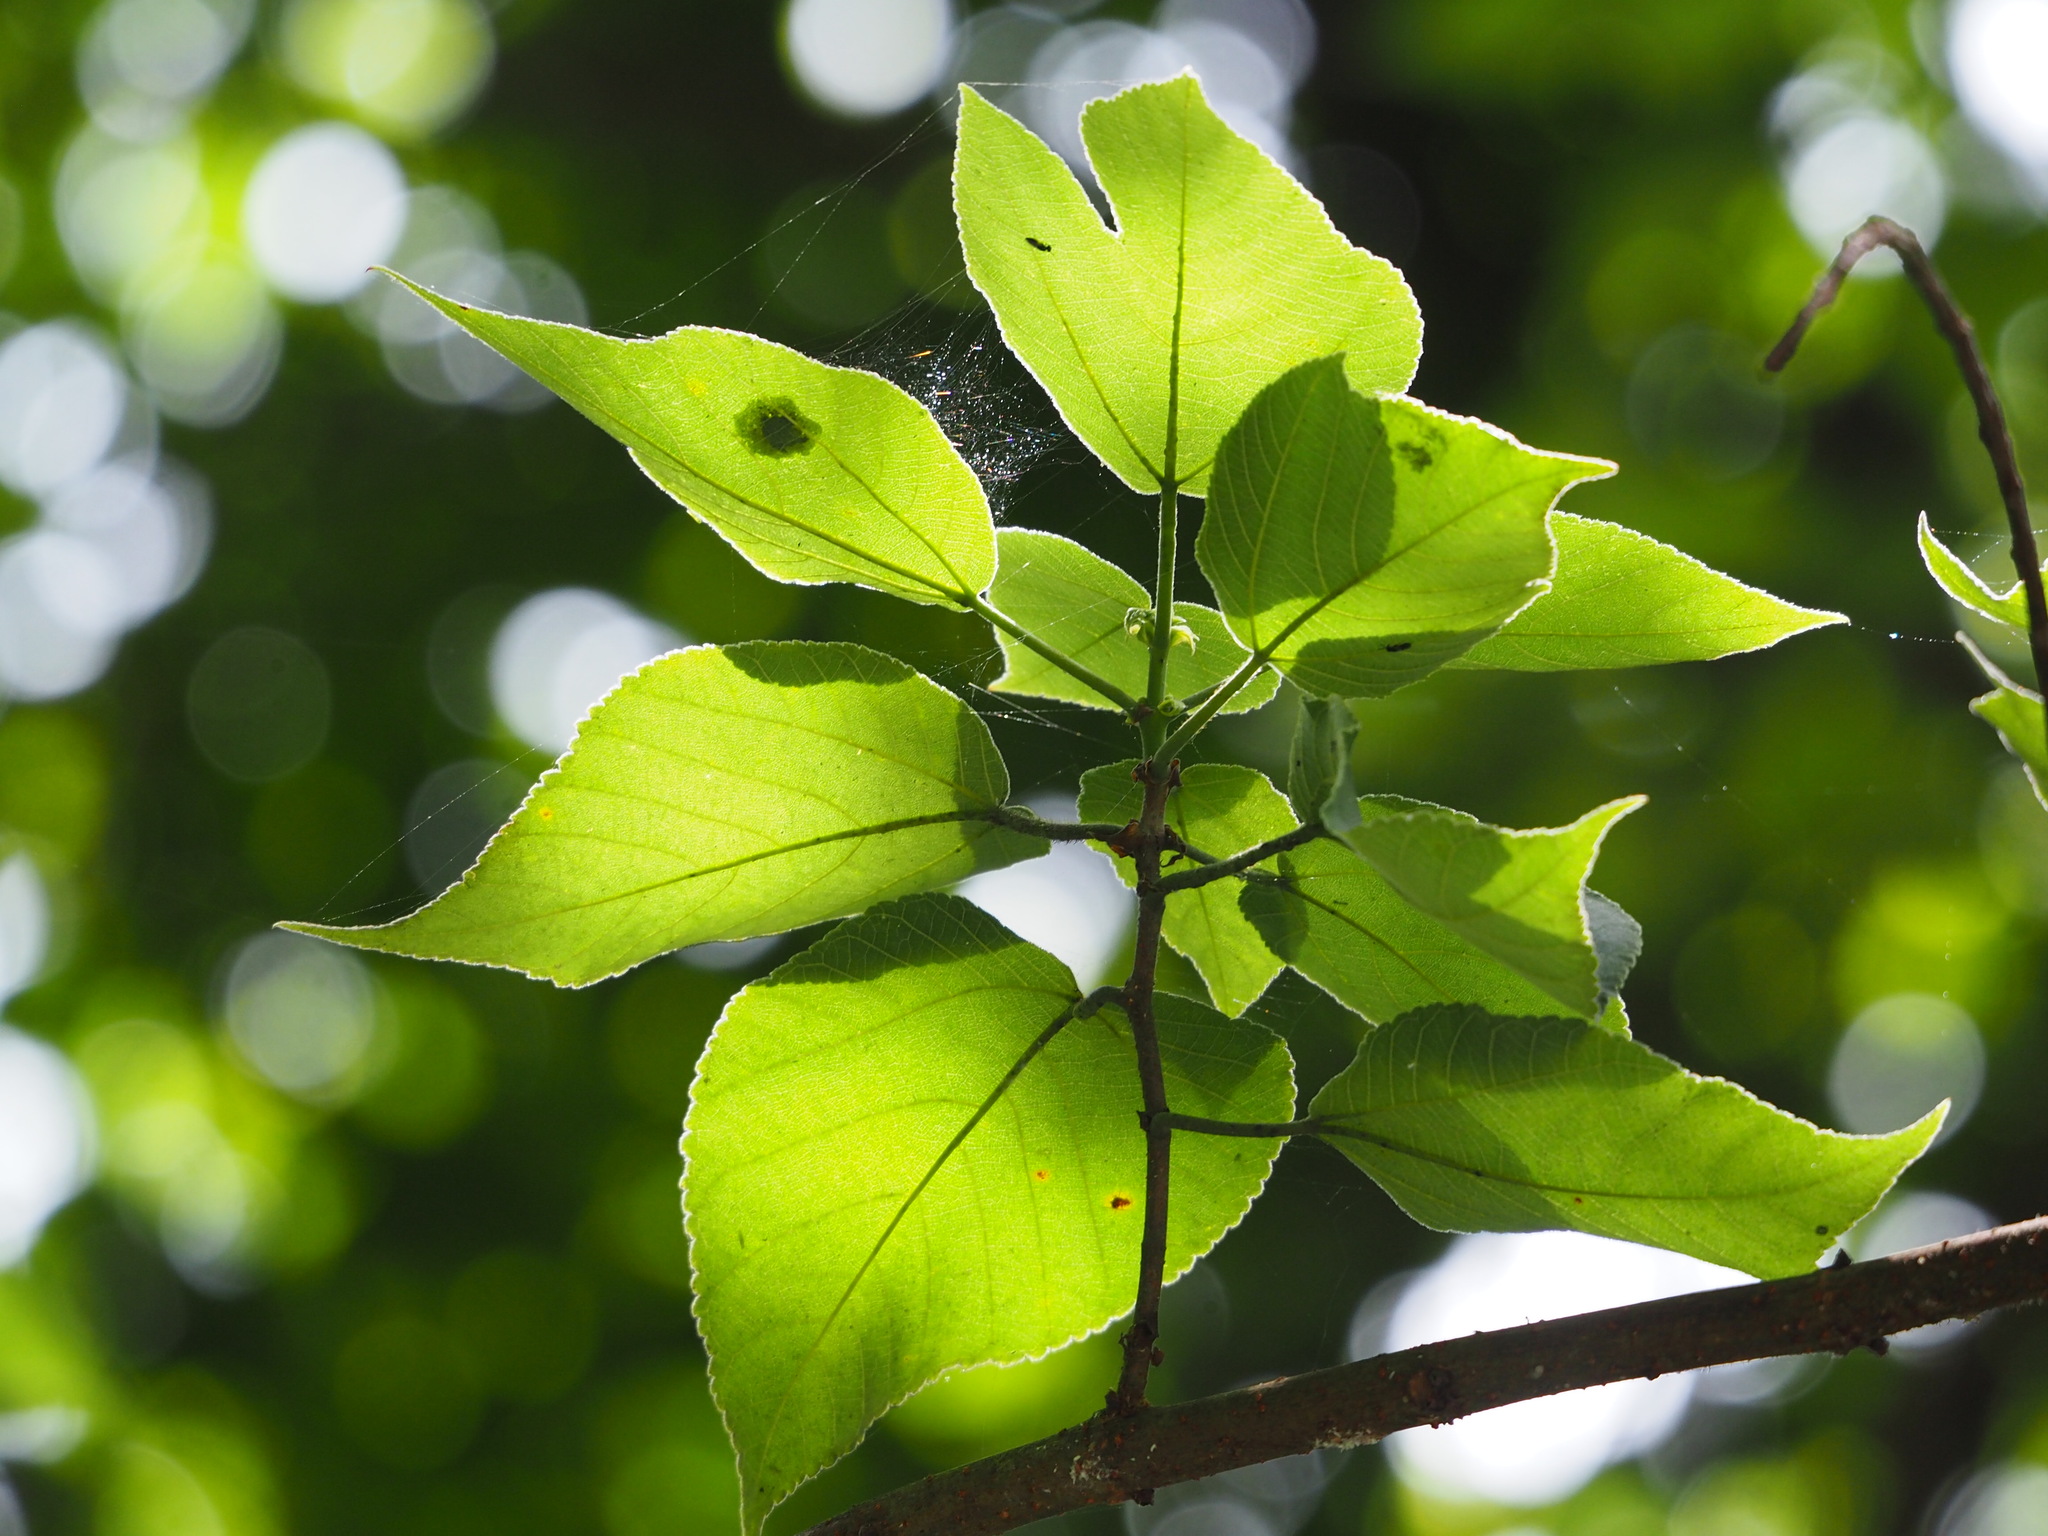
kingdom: Plantae
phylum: Tracheophyta
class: Magnoliopsida
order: Rosales
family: Moraceae
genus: Broussonetia
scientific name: Broussonetia papyrifera
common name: Paper mulberry
